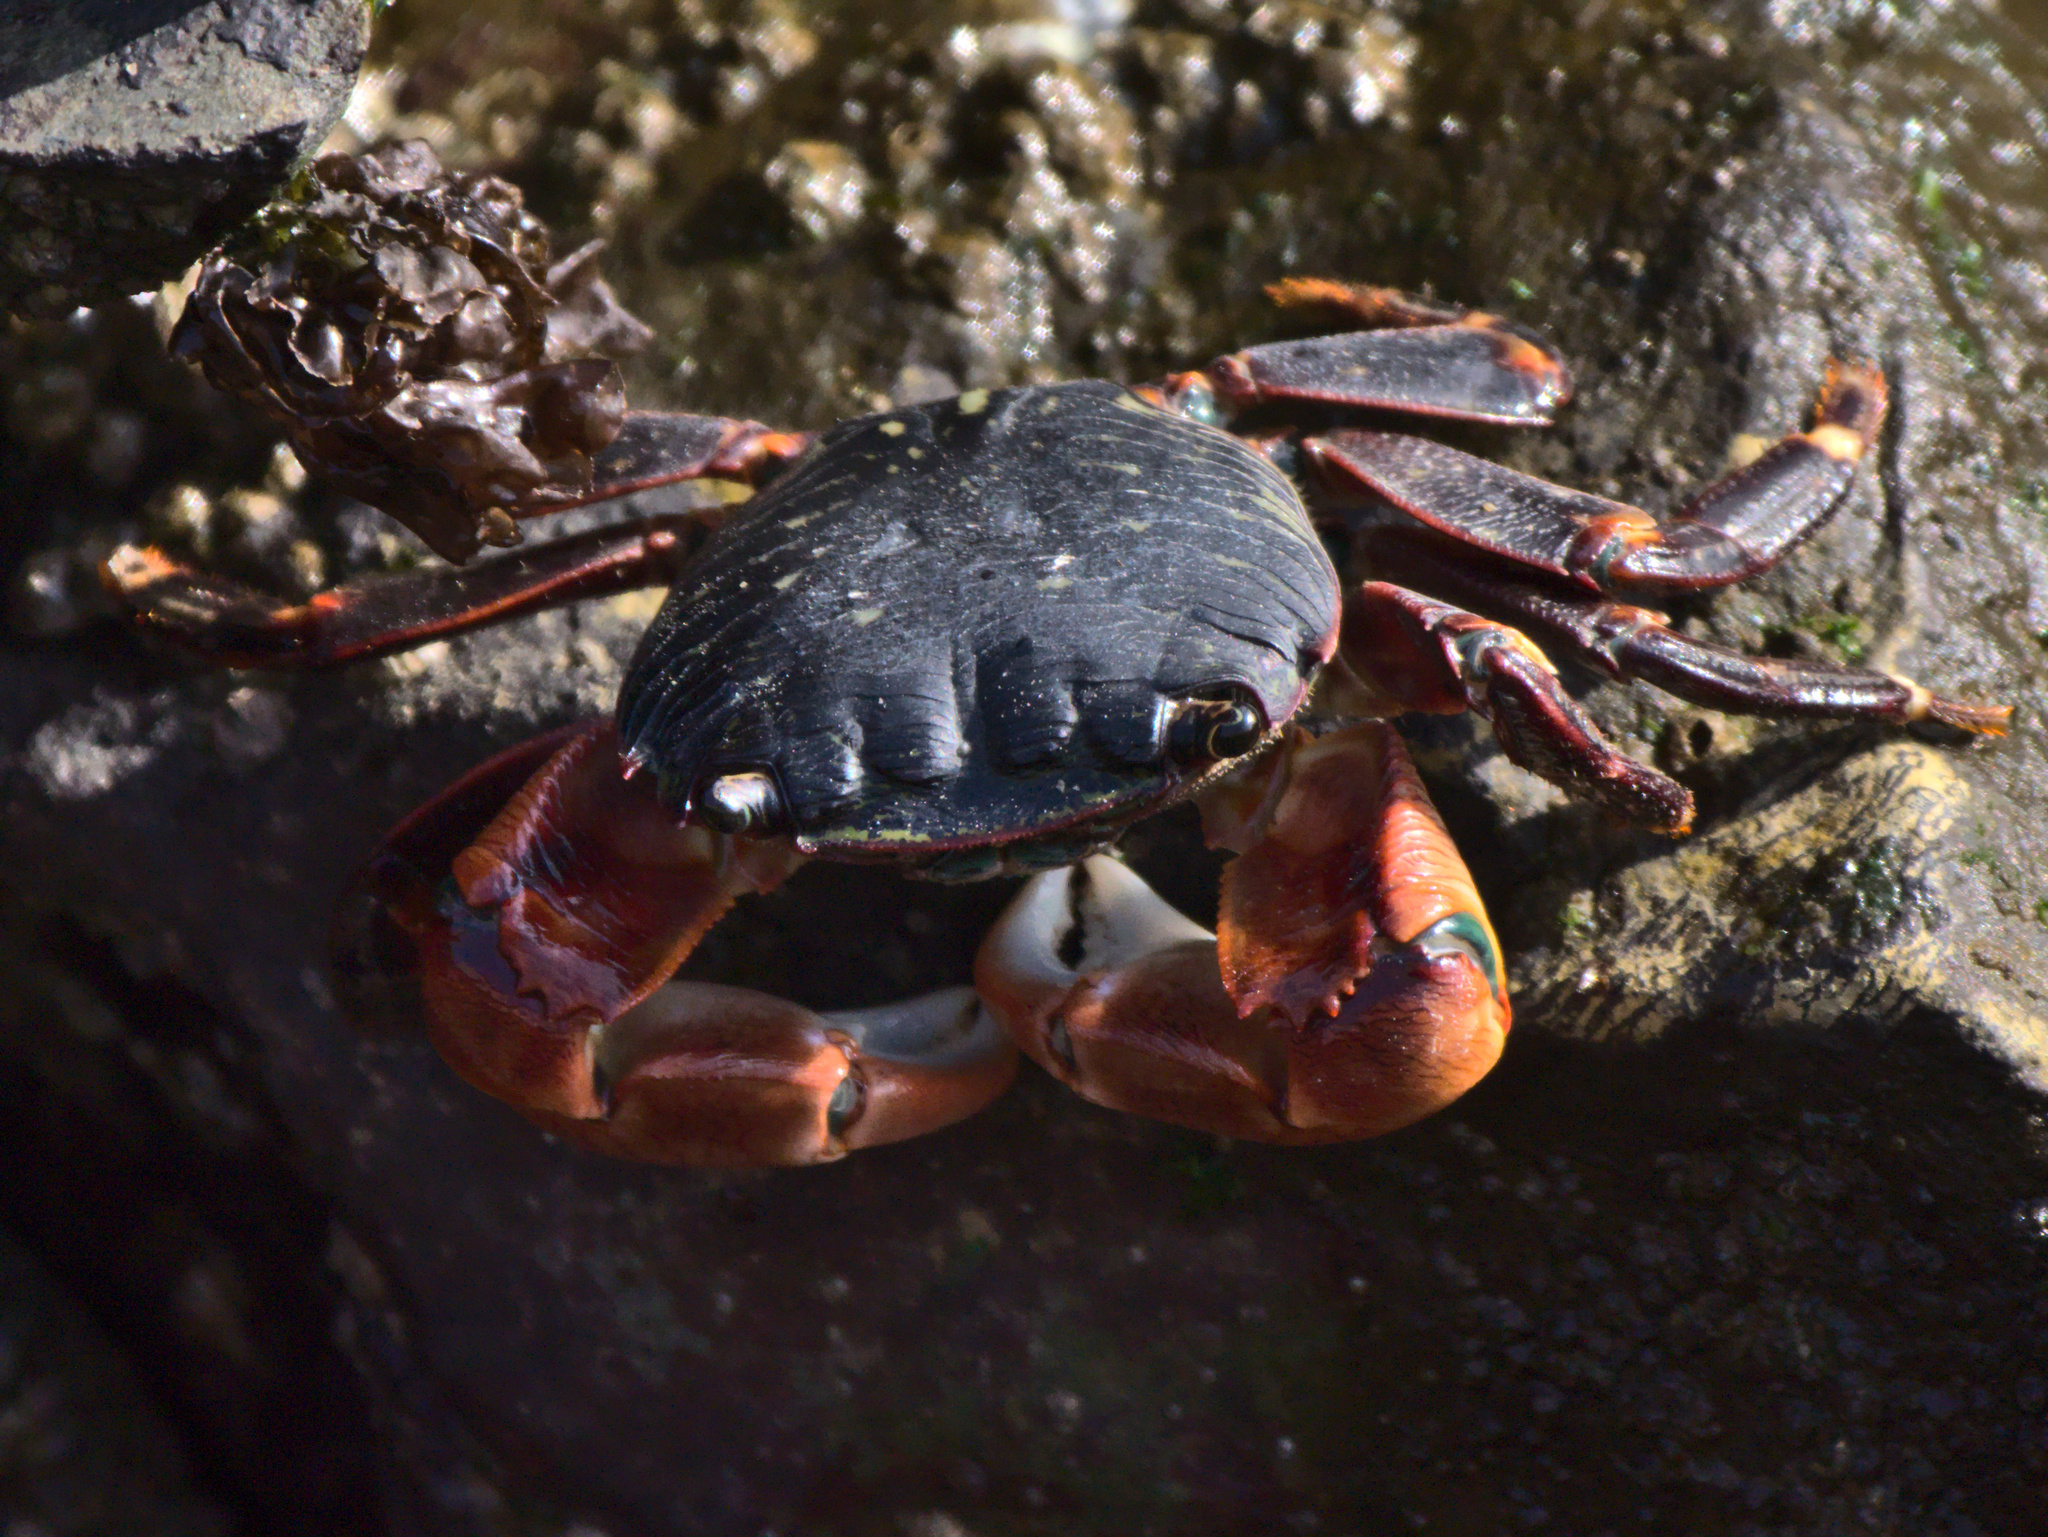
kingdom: Animalia
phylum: Arthropoda
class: Malacostraca
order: Decapoda
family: Grapsidae
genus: Pachygrapsus
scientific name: Pachygrapsus crassipes
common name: Striped shore crab
